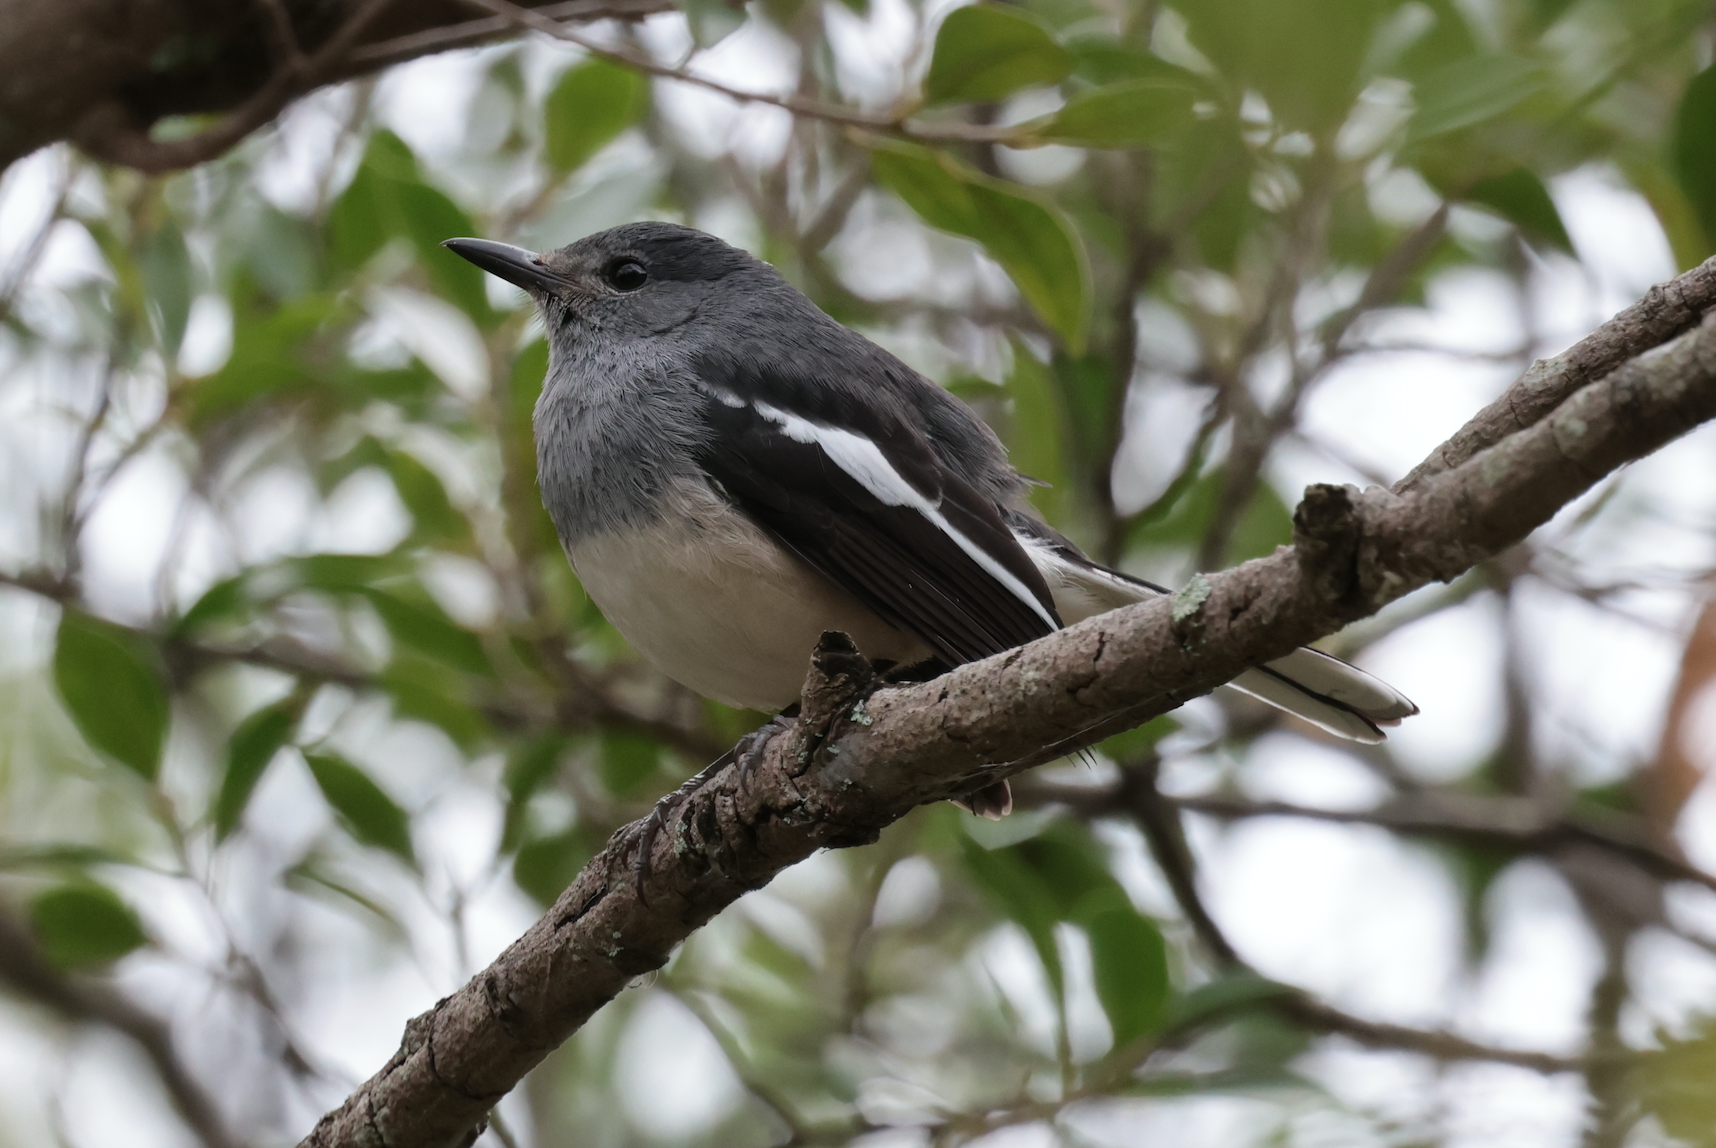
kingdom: Animalia
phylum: Chordata
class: Aves
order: Passeriformes
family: Muscicapidae
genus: Copsychus
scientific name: Copsychus saularis
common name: Oriental magpie-robin
